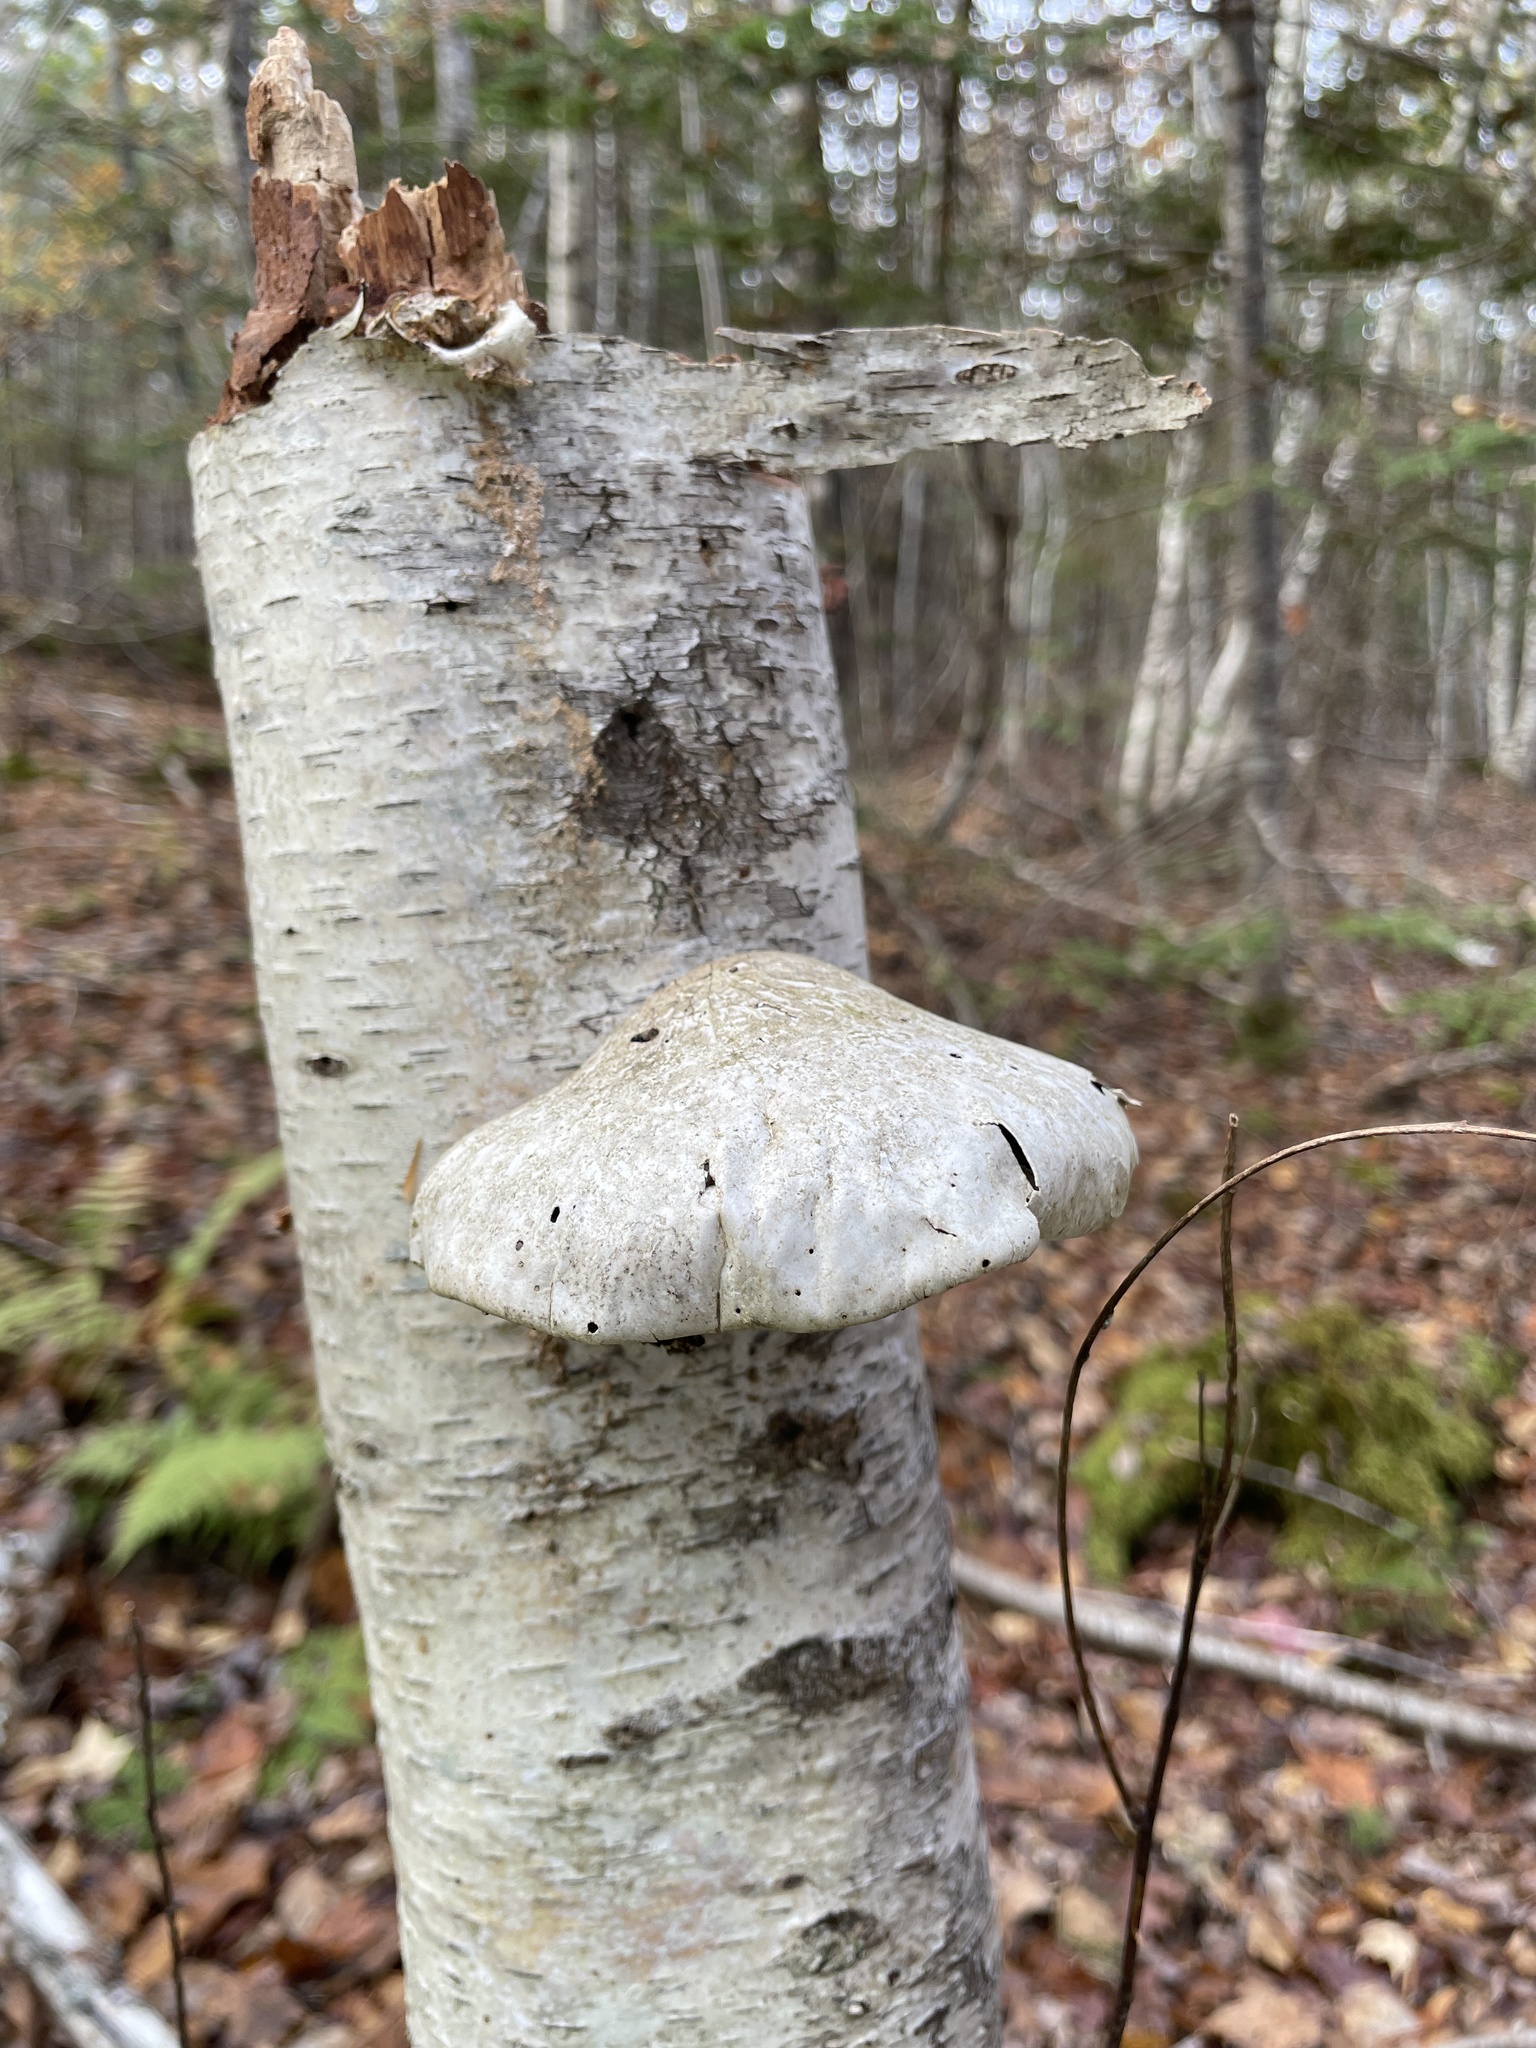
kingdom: Fungi
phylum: Basidiomycota
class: Agaricomycetes
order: Polyporales
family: Fomitopsidaceae
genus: Fomitopsis
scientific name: Fomitopsis betulina
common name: Birch polypore
